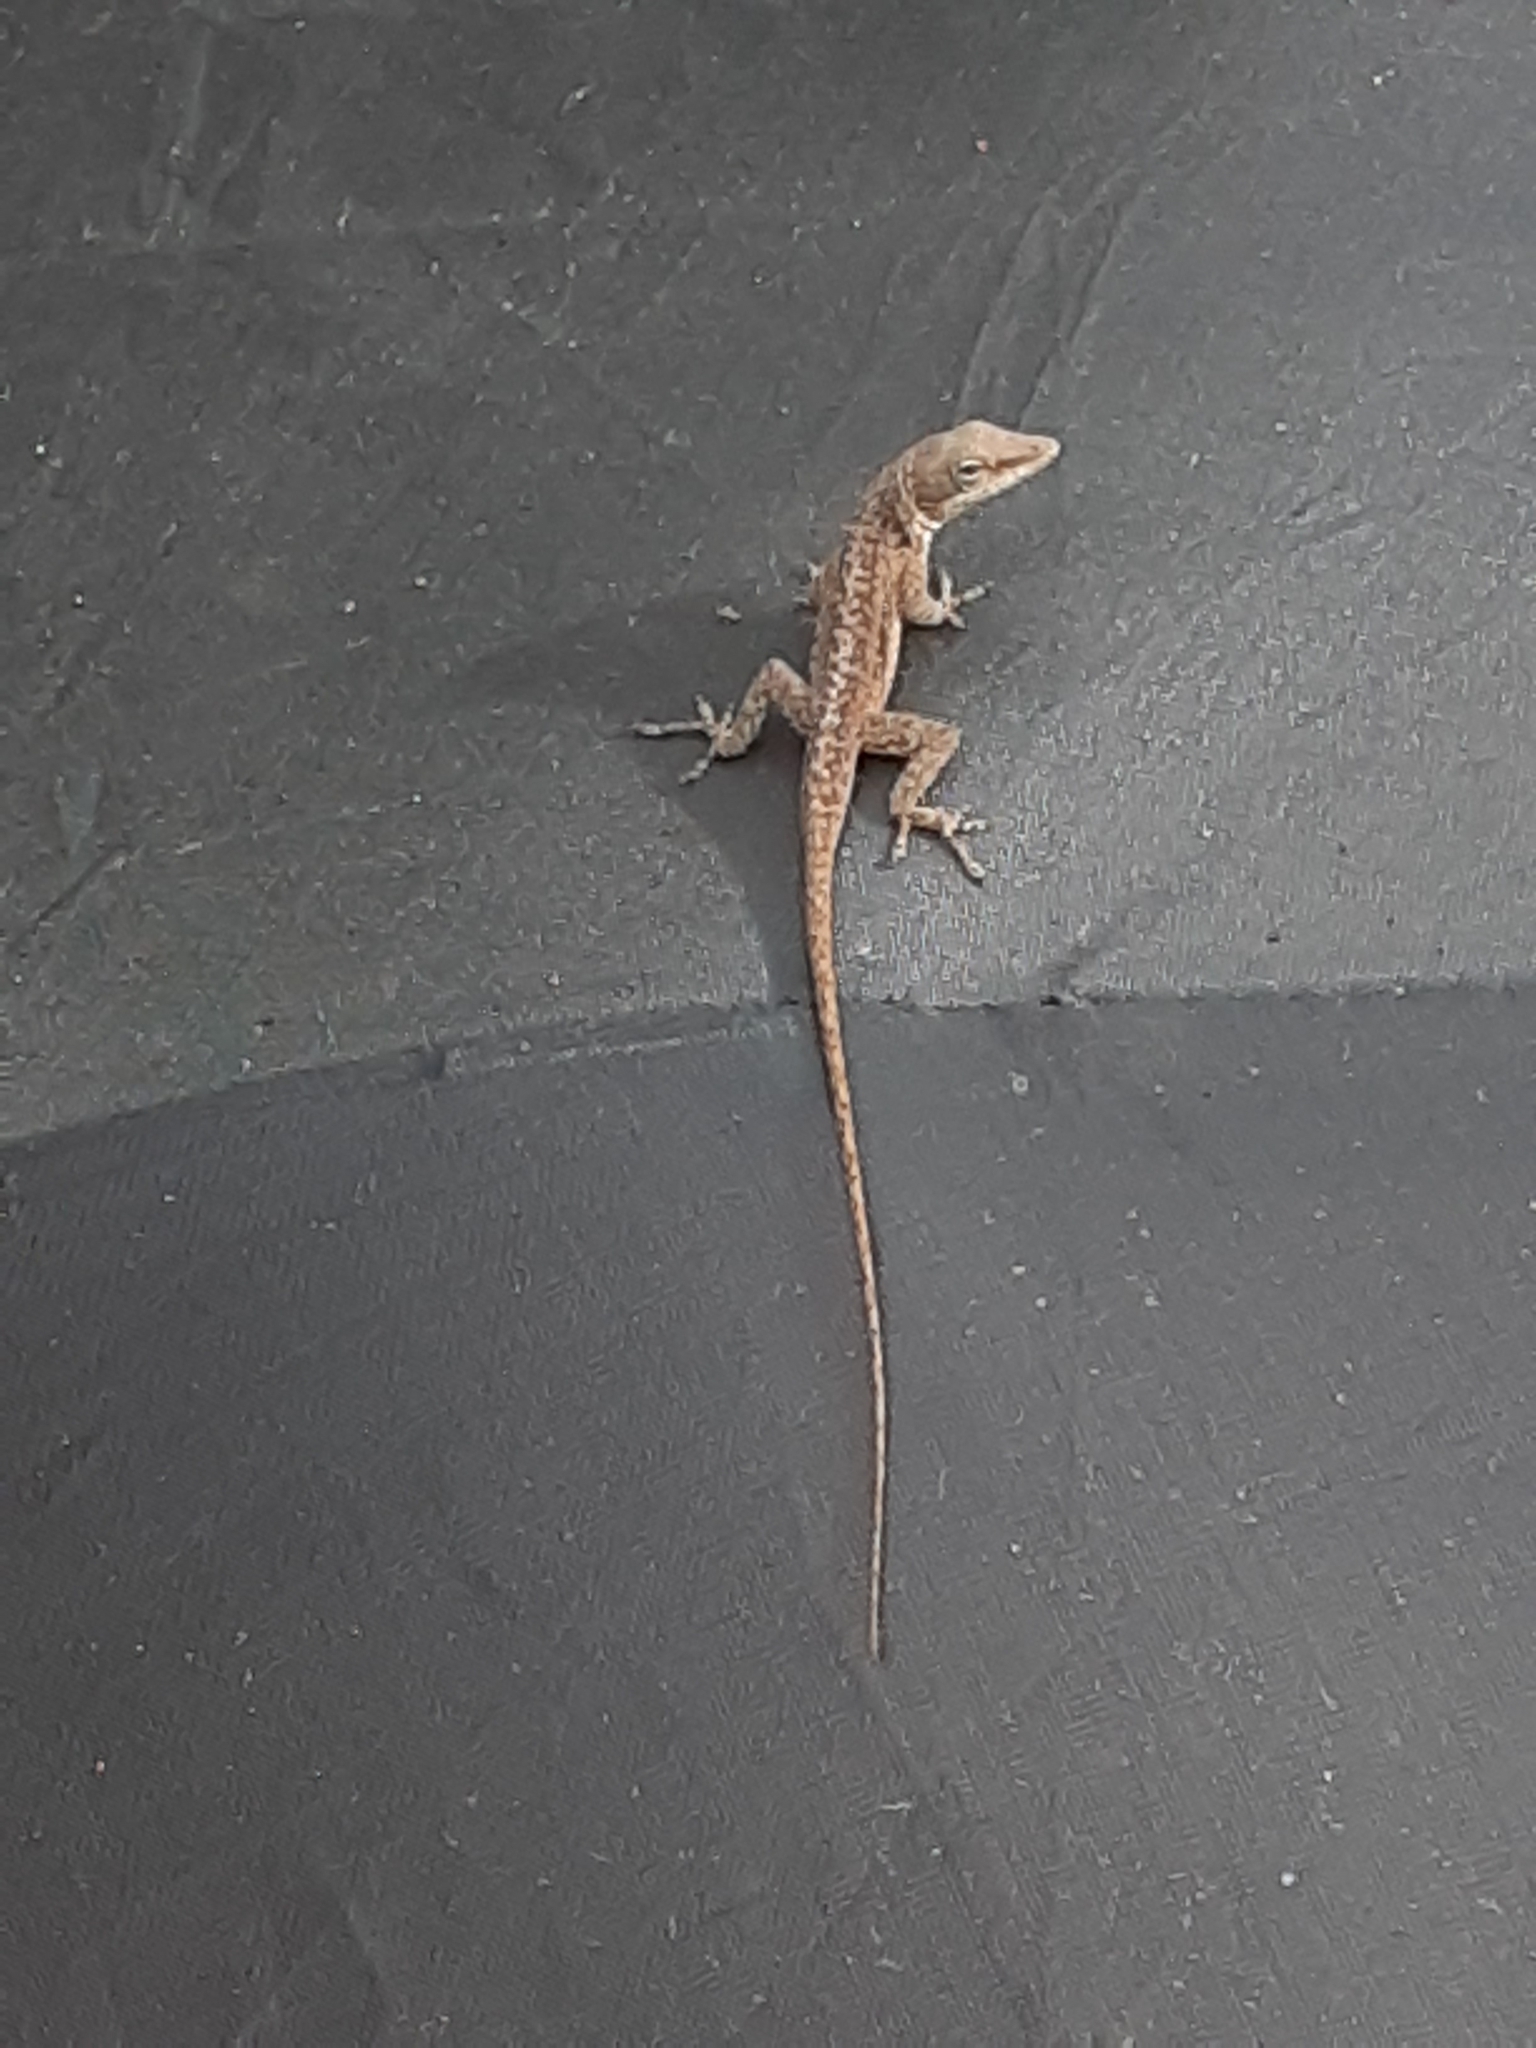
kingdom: Animalia
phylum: Chordata
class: Squamata
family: Dactyloidae
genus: Anolis
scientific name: Anolis carolinensis
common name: Green anole
